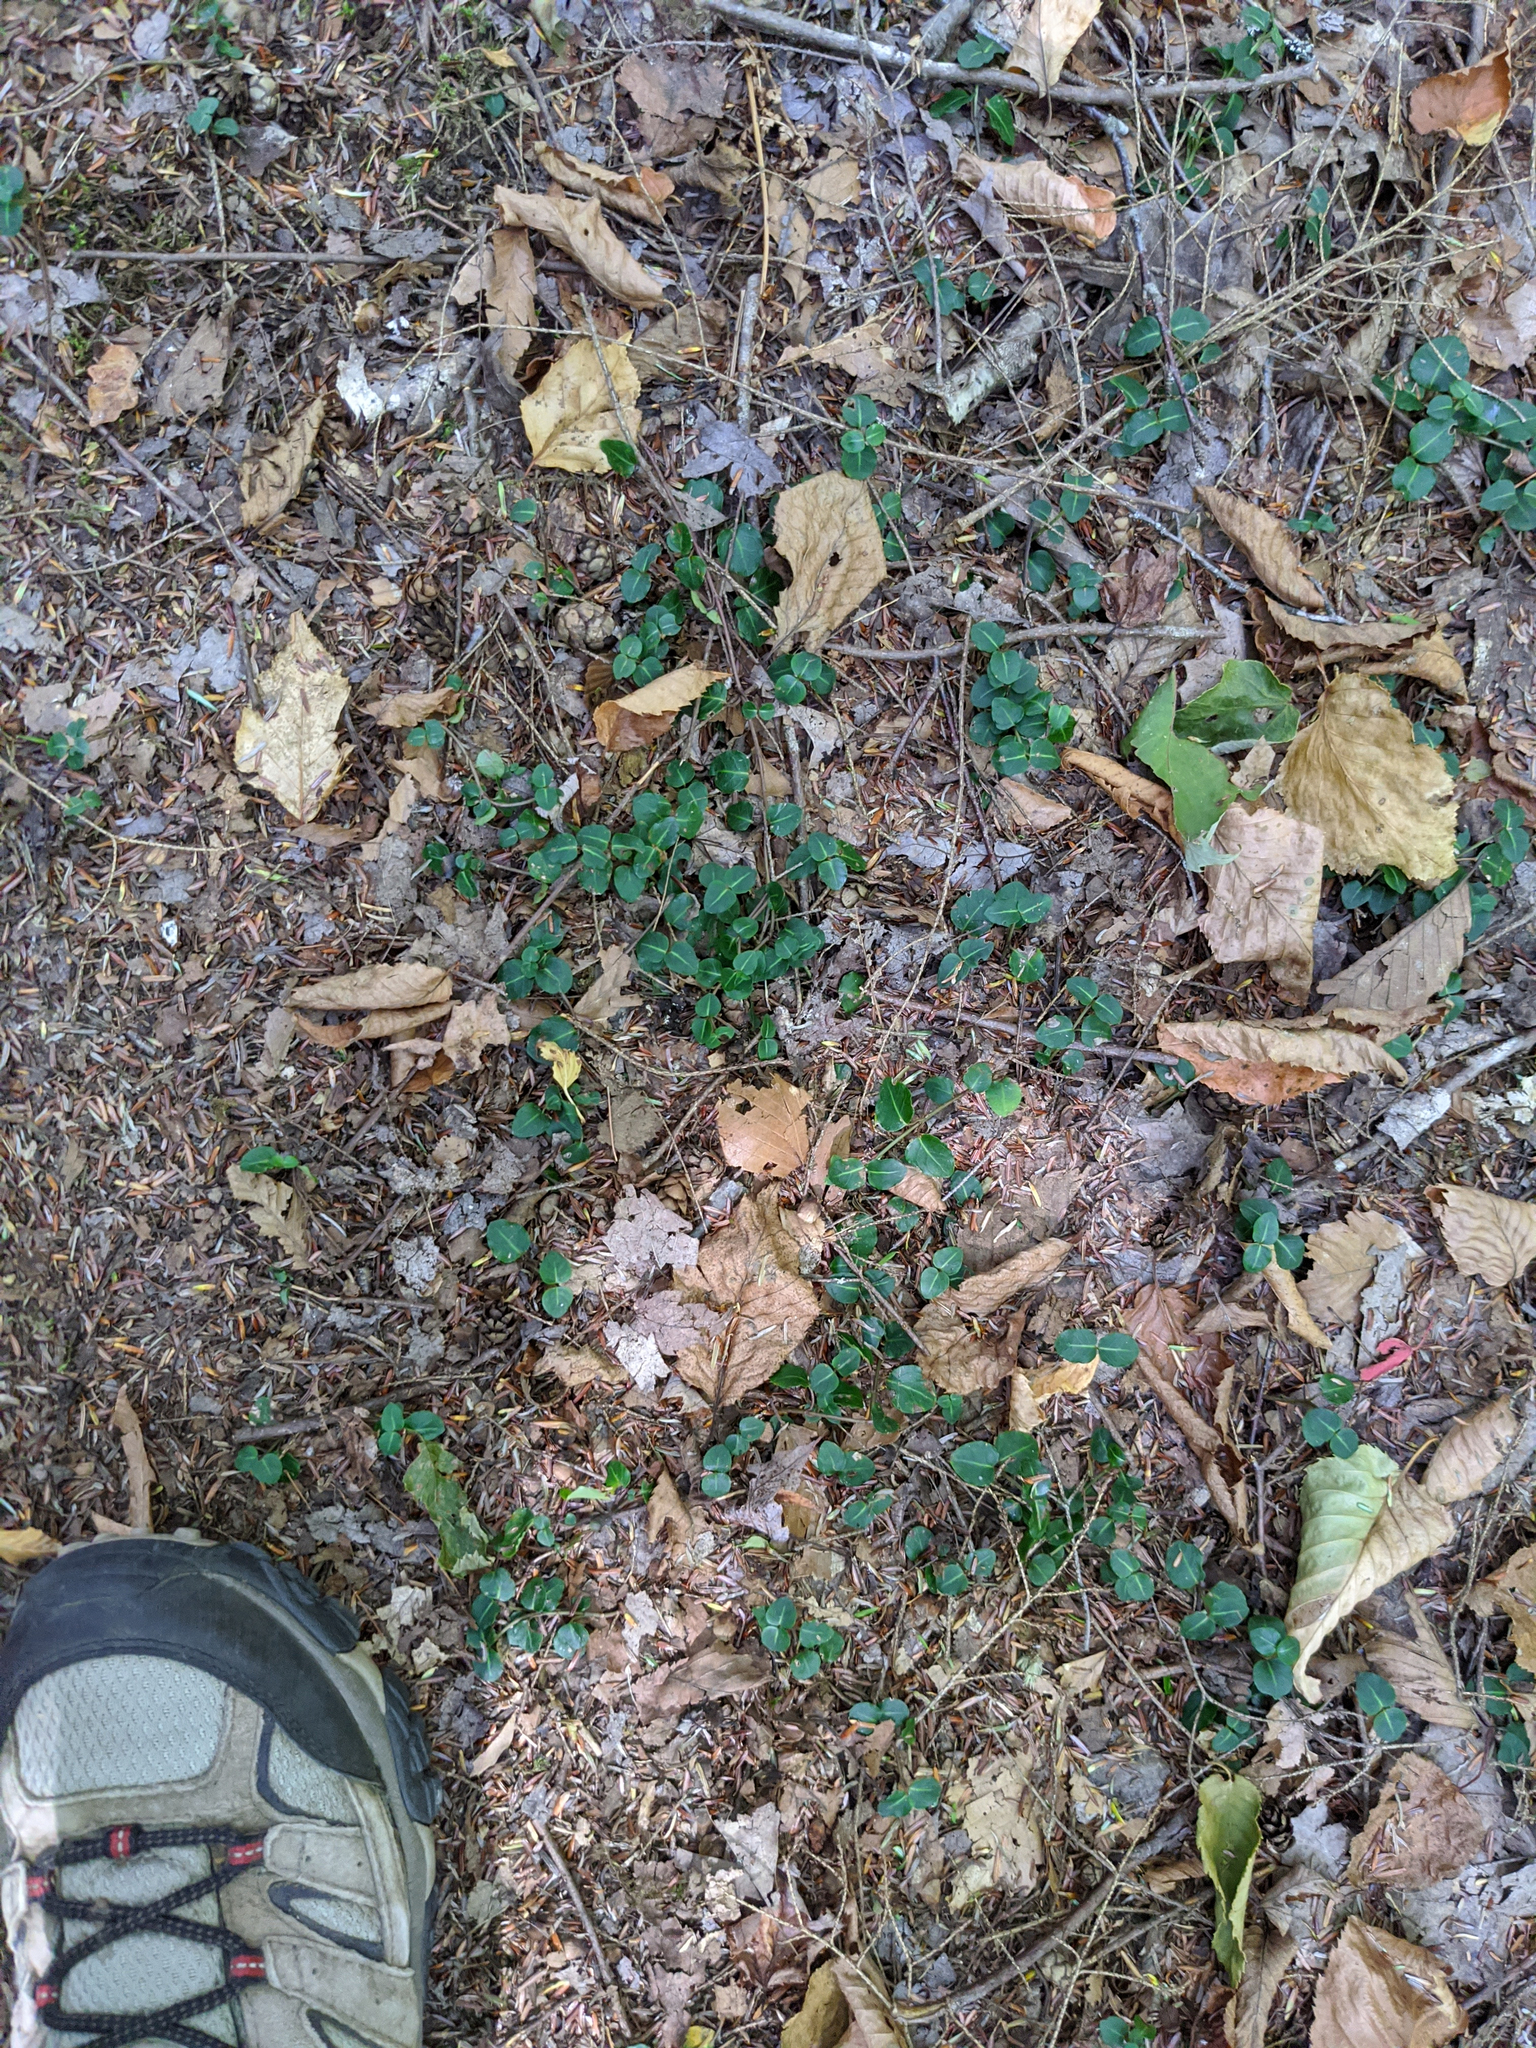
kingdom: Plantae
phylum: Tracheophyta
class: Magnoliopsida
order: Gentianales
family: Rubiaceae
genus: Mitchella
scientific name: Mitchella repens
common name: Partridge-berry
